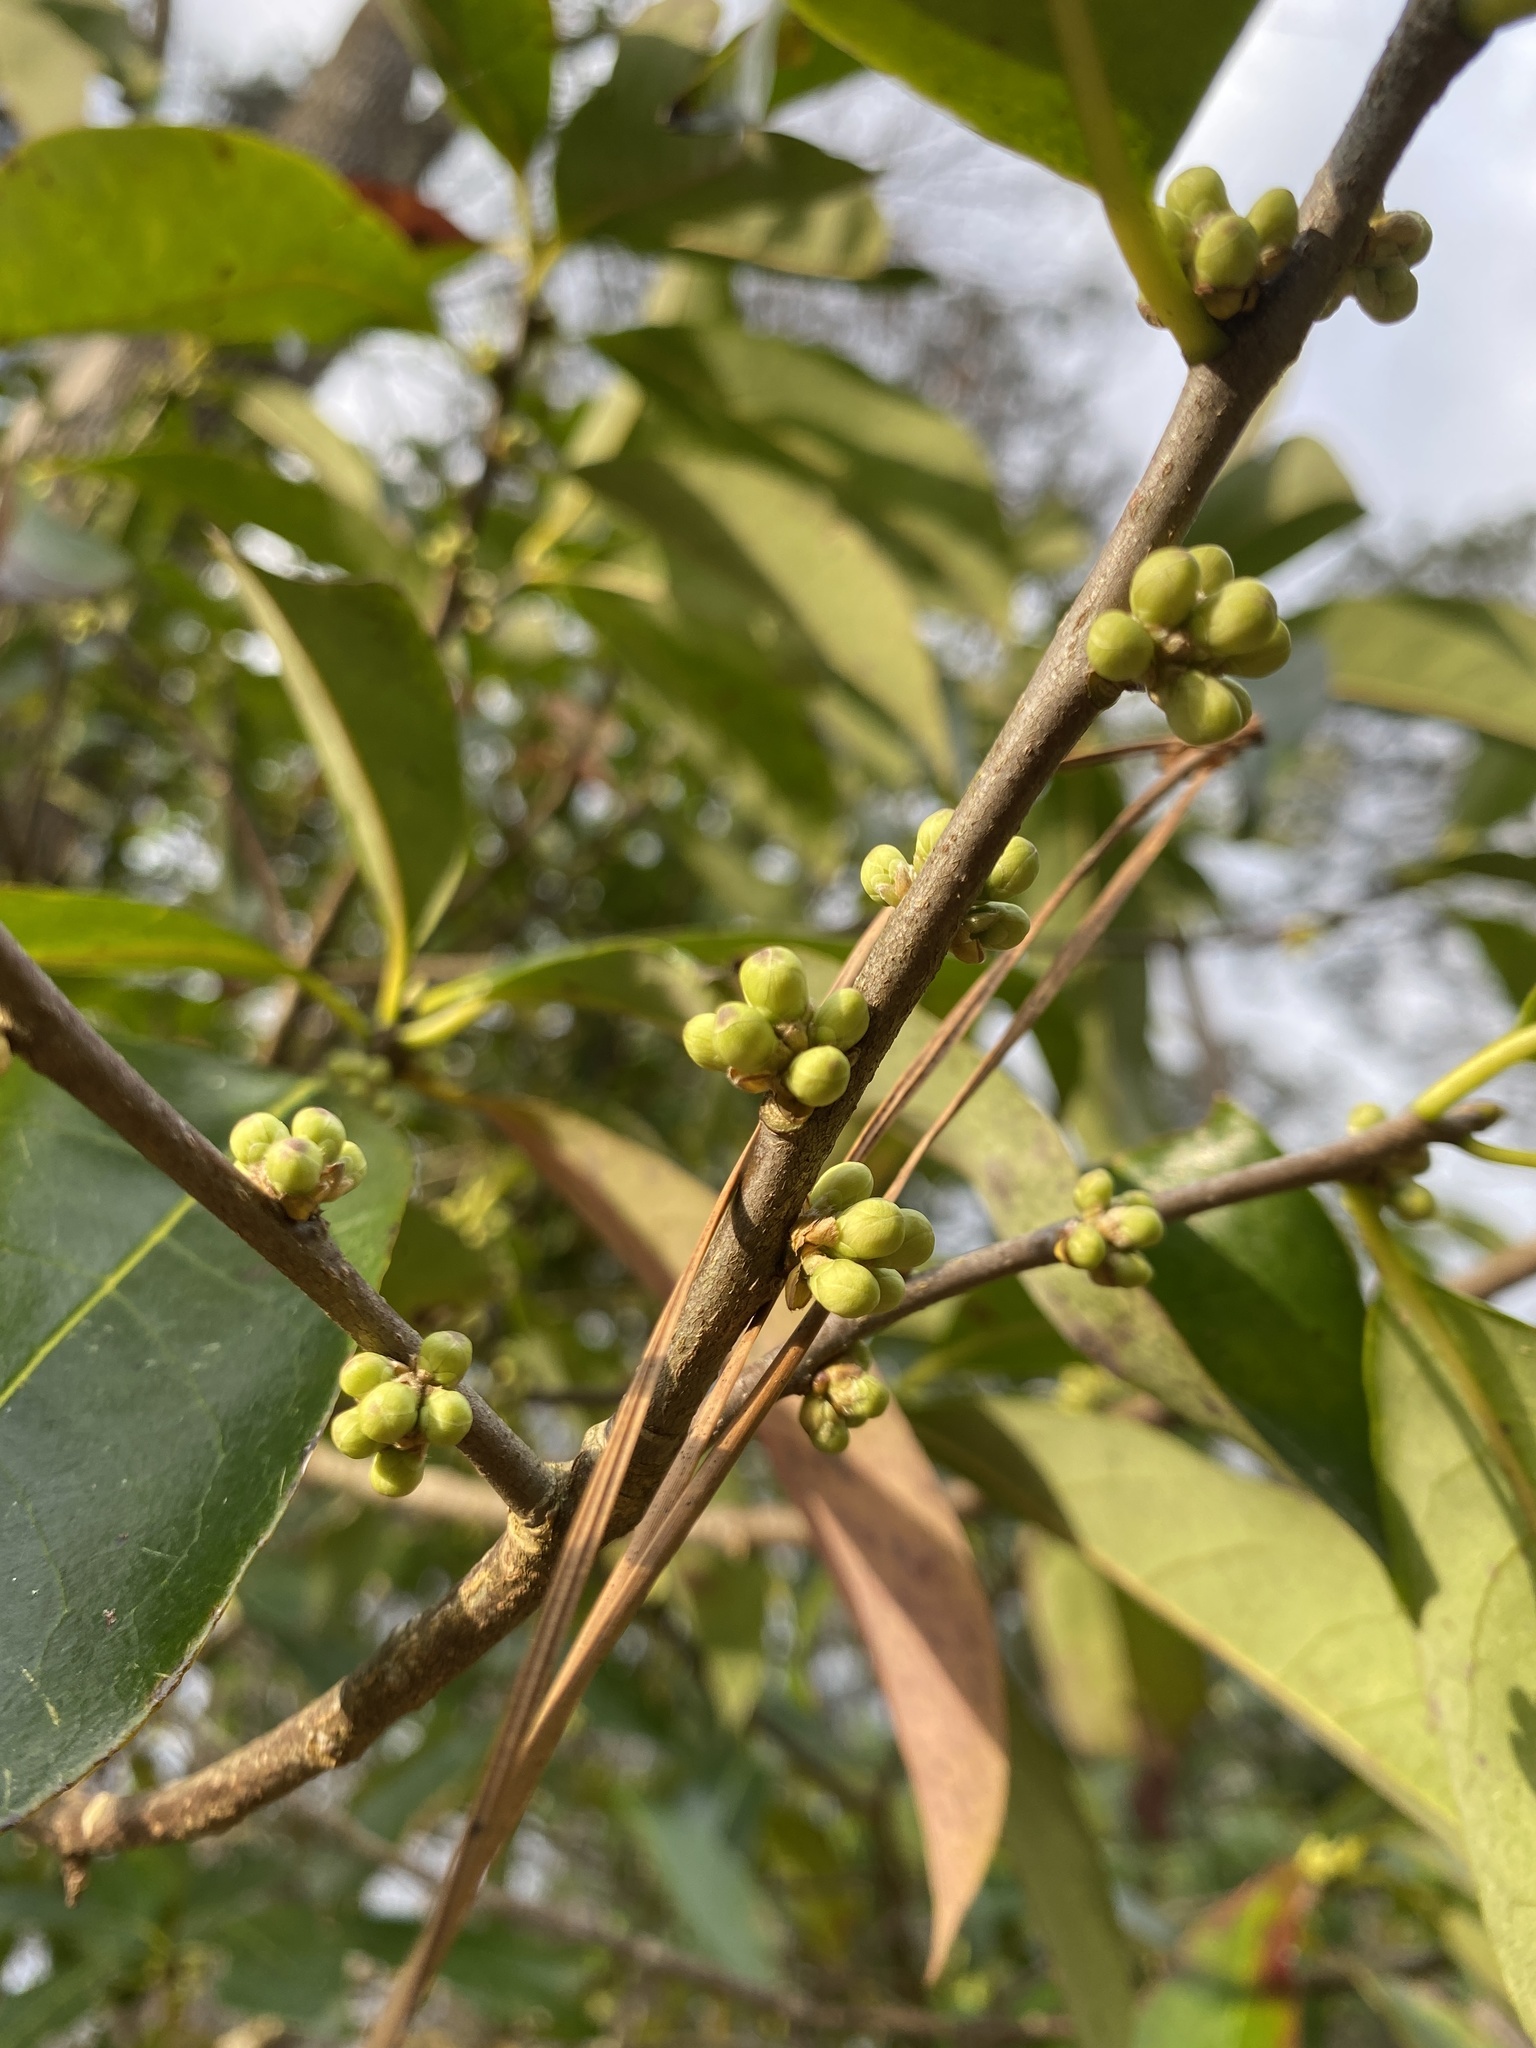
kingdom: Plantae
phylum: Tracheophyta
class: Magnoliopsida
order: Ericales
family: Symplocaceae
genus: Symplocos
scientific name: Symplocos tinctoria
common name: Horse-sugar
